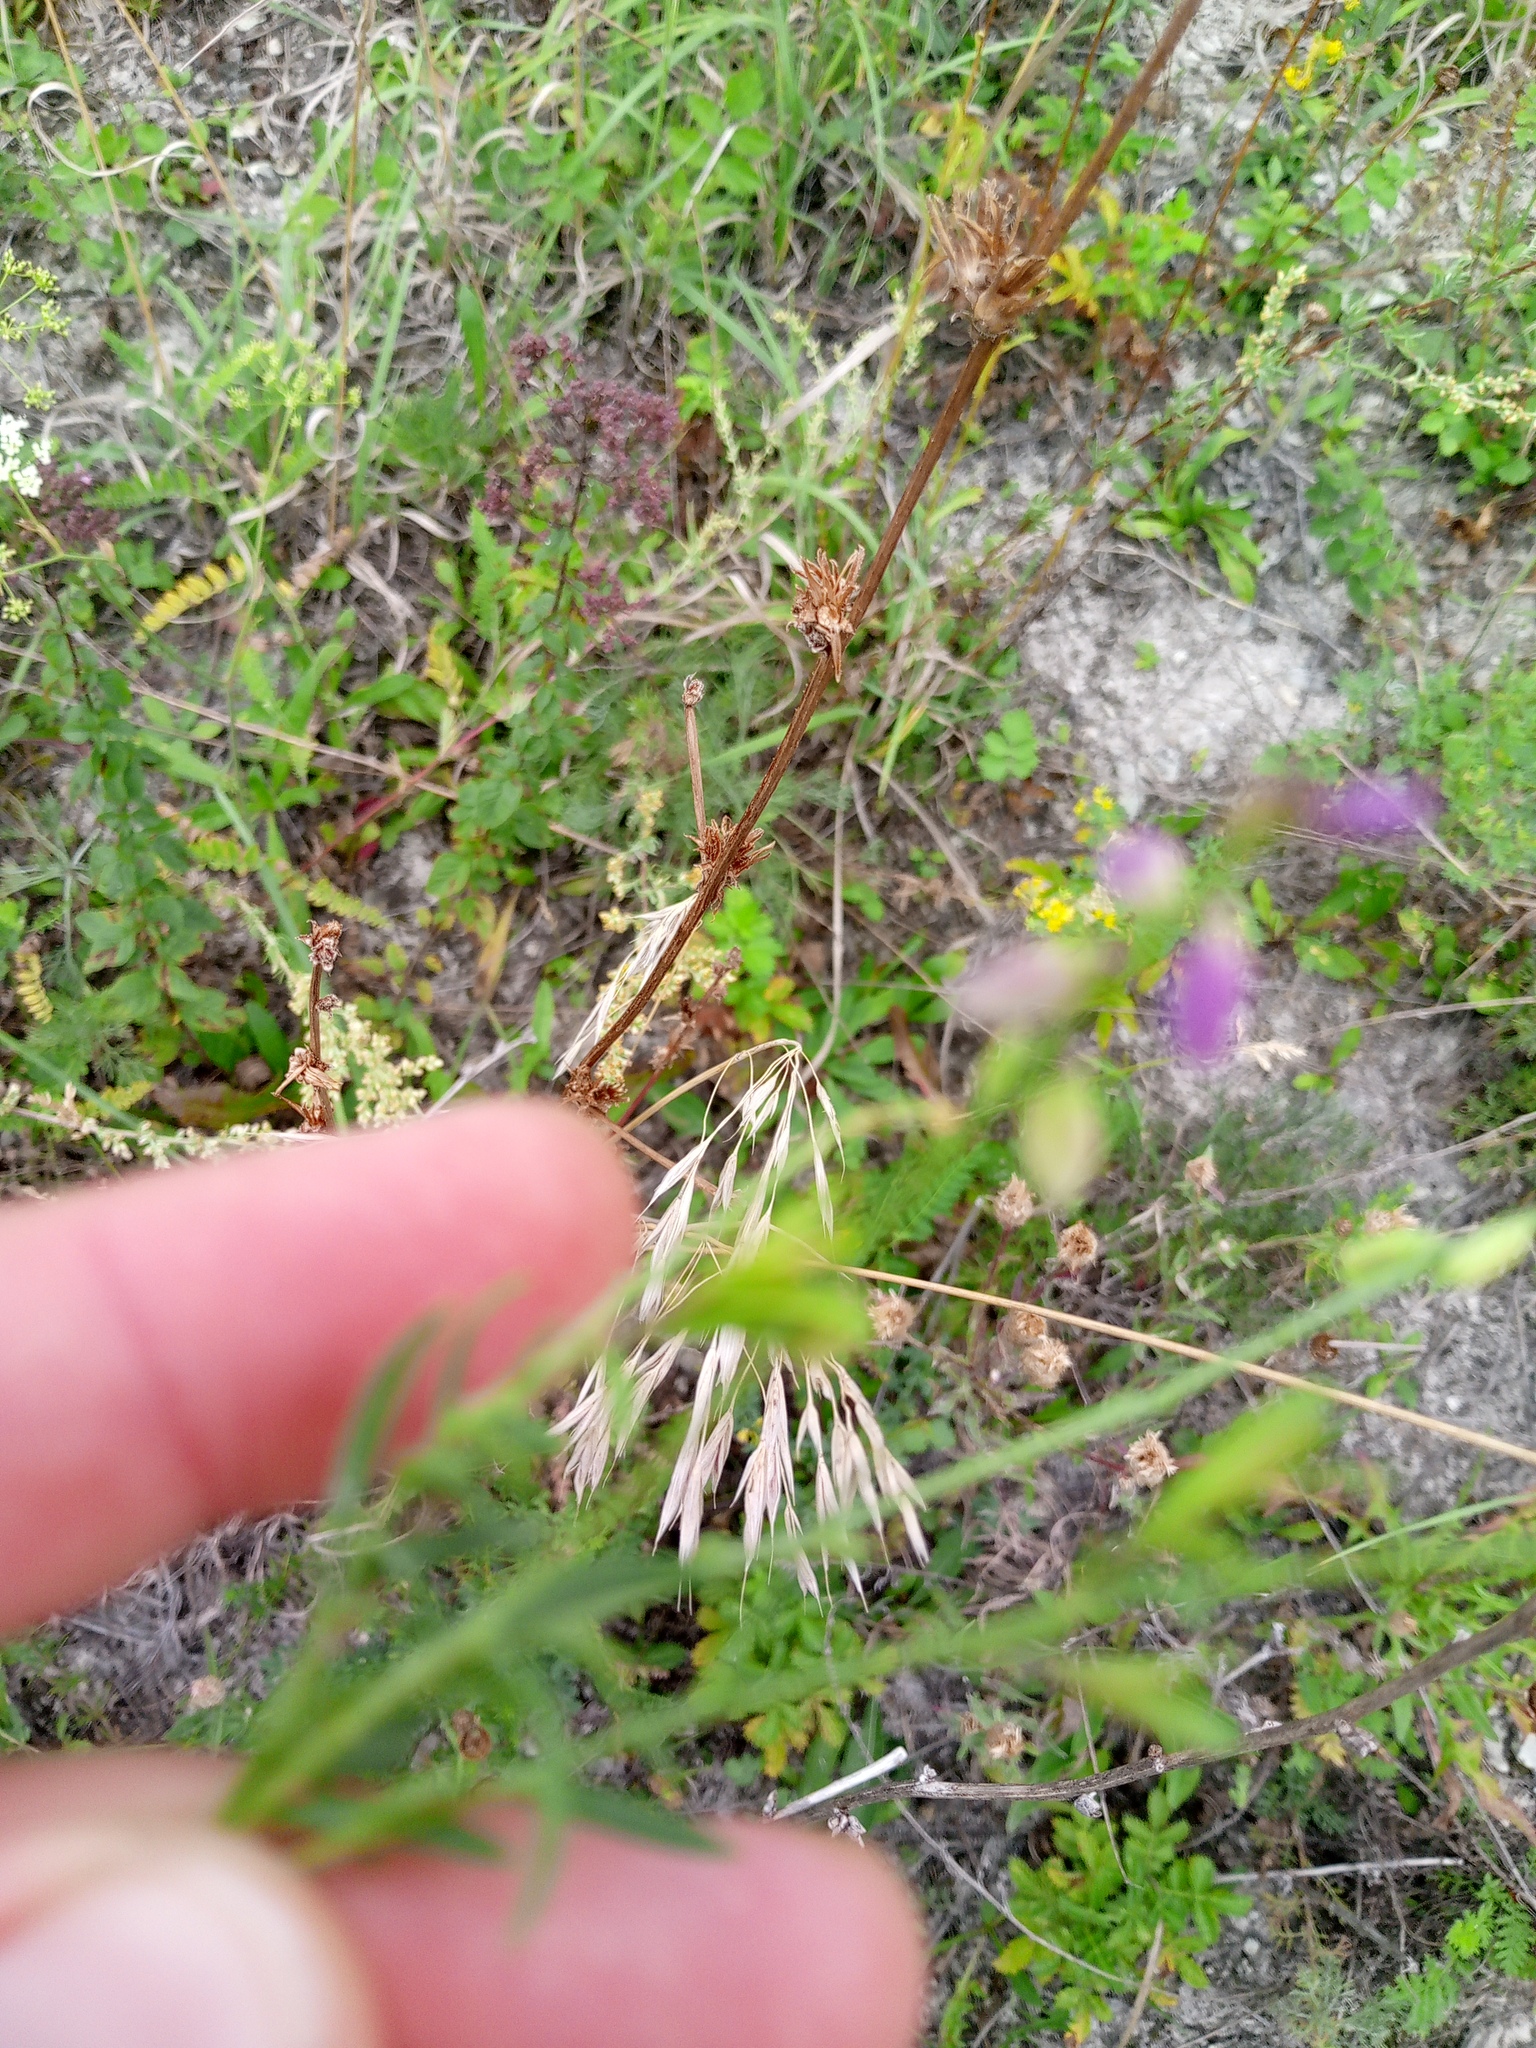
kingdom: Plantae
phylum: Tracheophyta
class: Magnoliopsida
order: Fabales
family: Polygalaceae
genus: Polygala
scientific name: Polygala comosa
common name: Tufted milkwort
